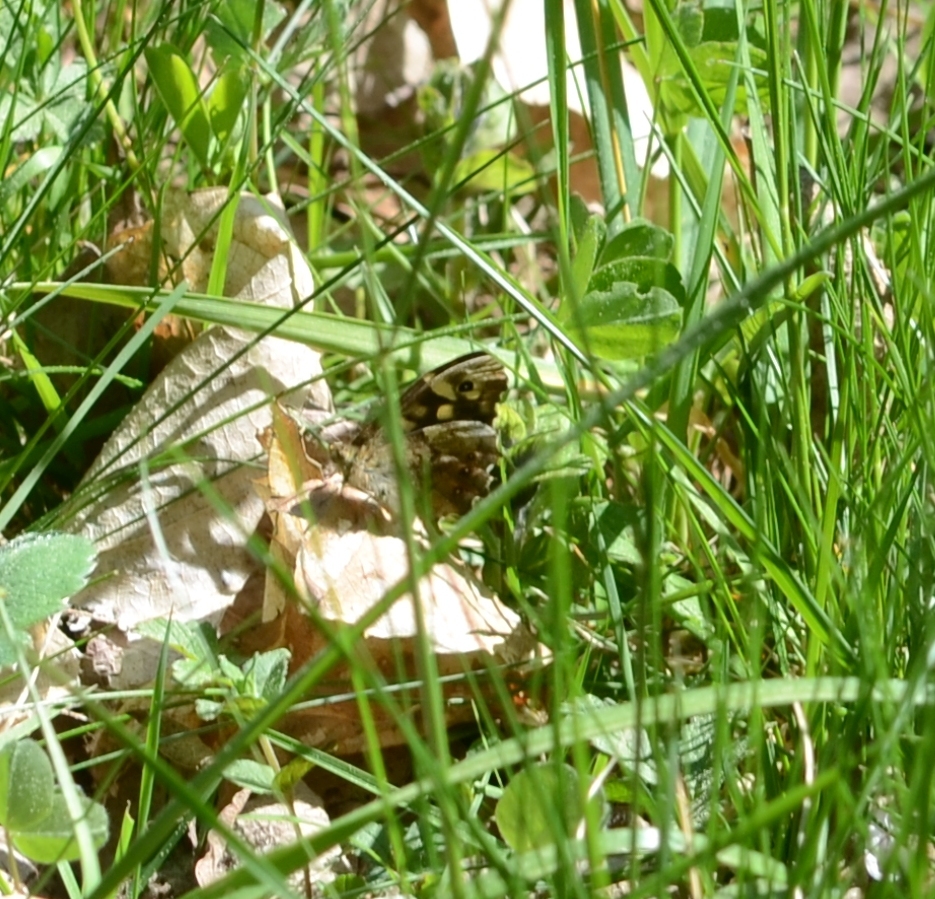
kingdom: Animalia
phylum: Arthropoda
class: Insecta
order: Lepidoptera
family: Nymphalidae
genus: Pararge
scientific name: Pararge aegeria
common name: Speckled wood
